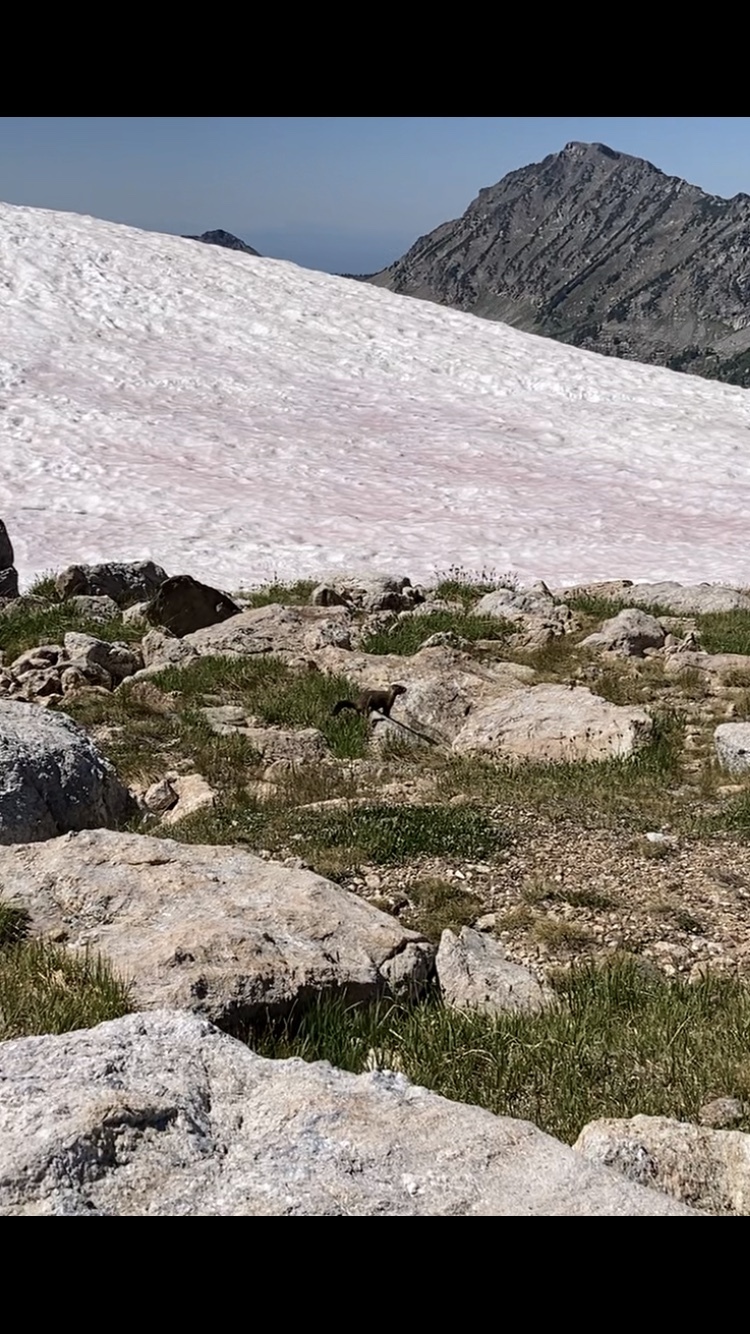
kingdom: Animalia
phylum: Chordata
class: Mammalia
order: Rodentia
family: Sciuridae
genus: Marmota
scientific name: Marmota flaviventris
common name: Yellow-bellied marmot
